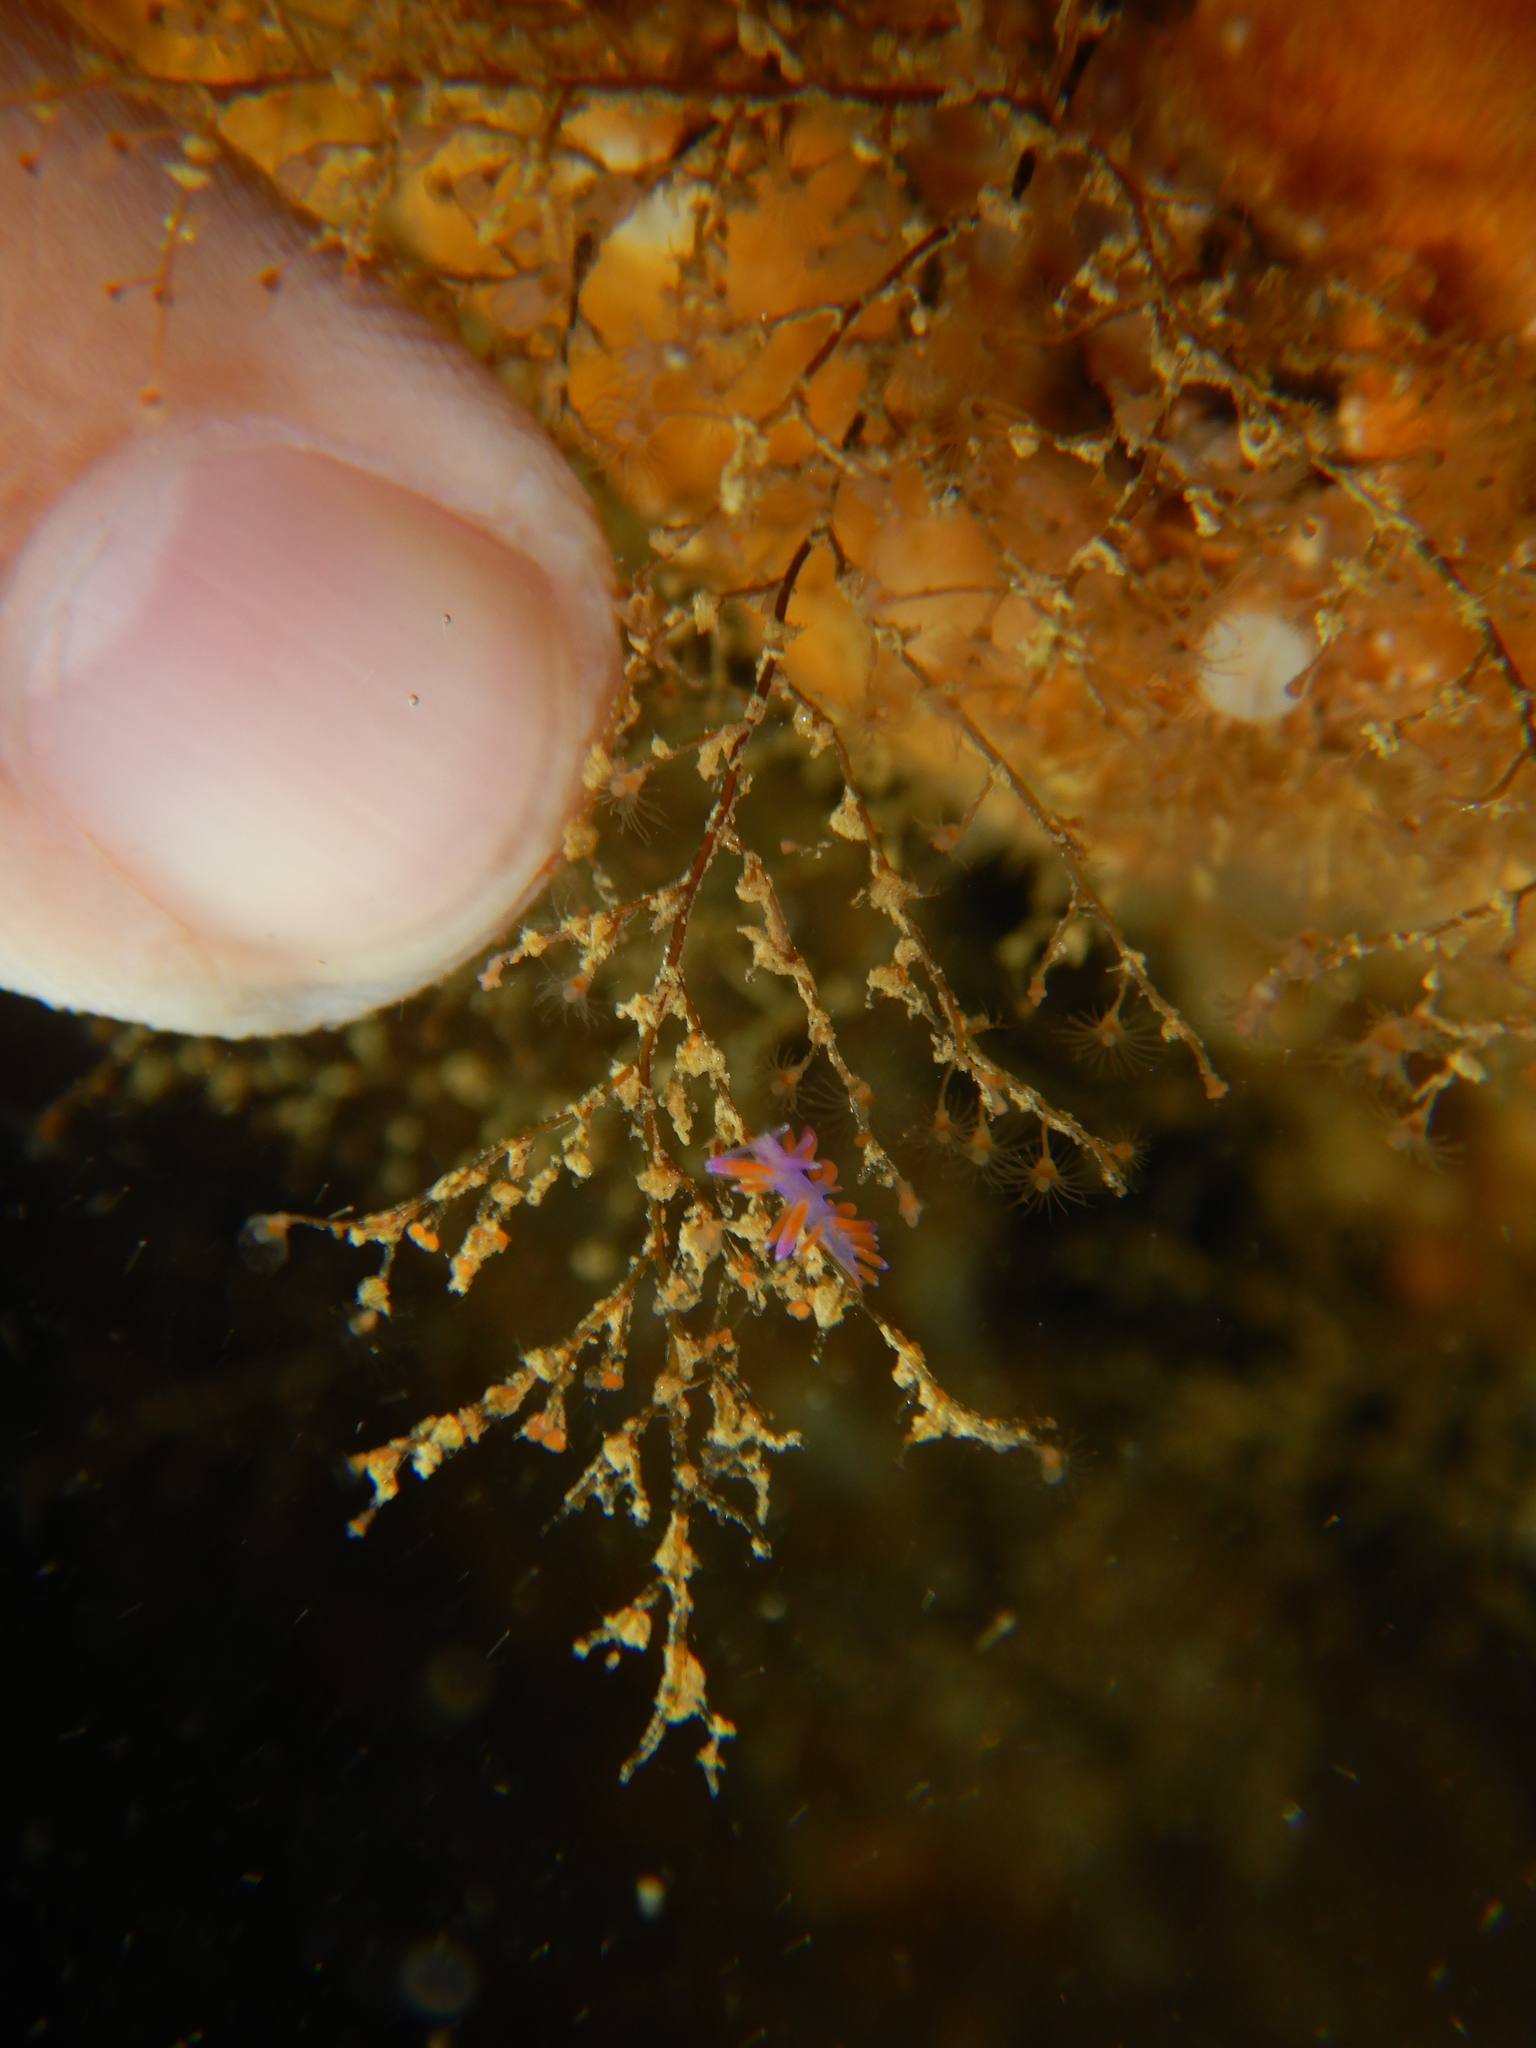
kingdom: Animalia
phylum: Mollusca
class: Gastropoda
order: Nudibranchia
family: Flabellinidae
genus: Edmundsella
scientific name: Edmundsella pedata
